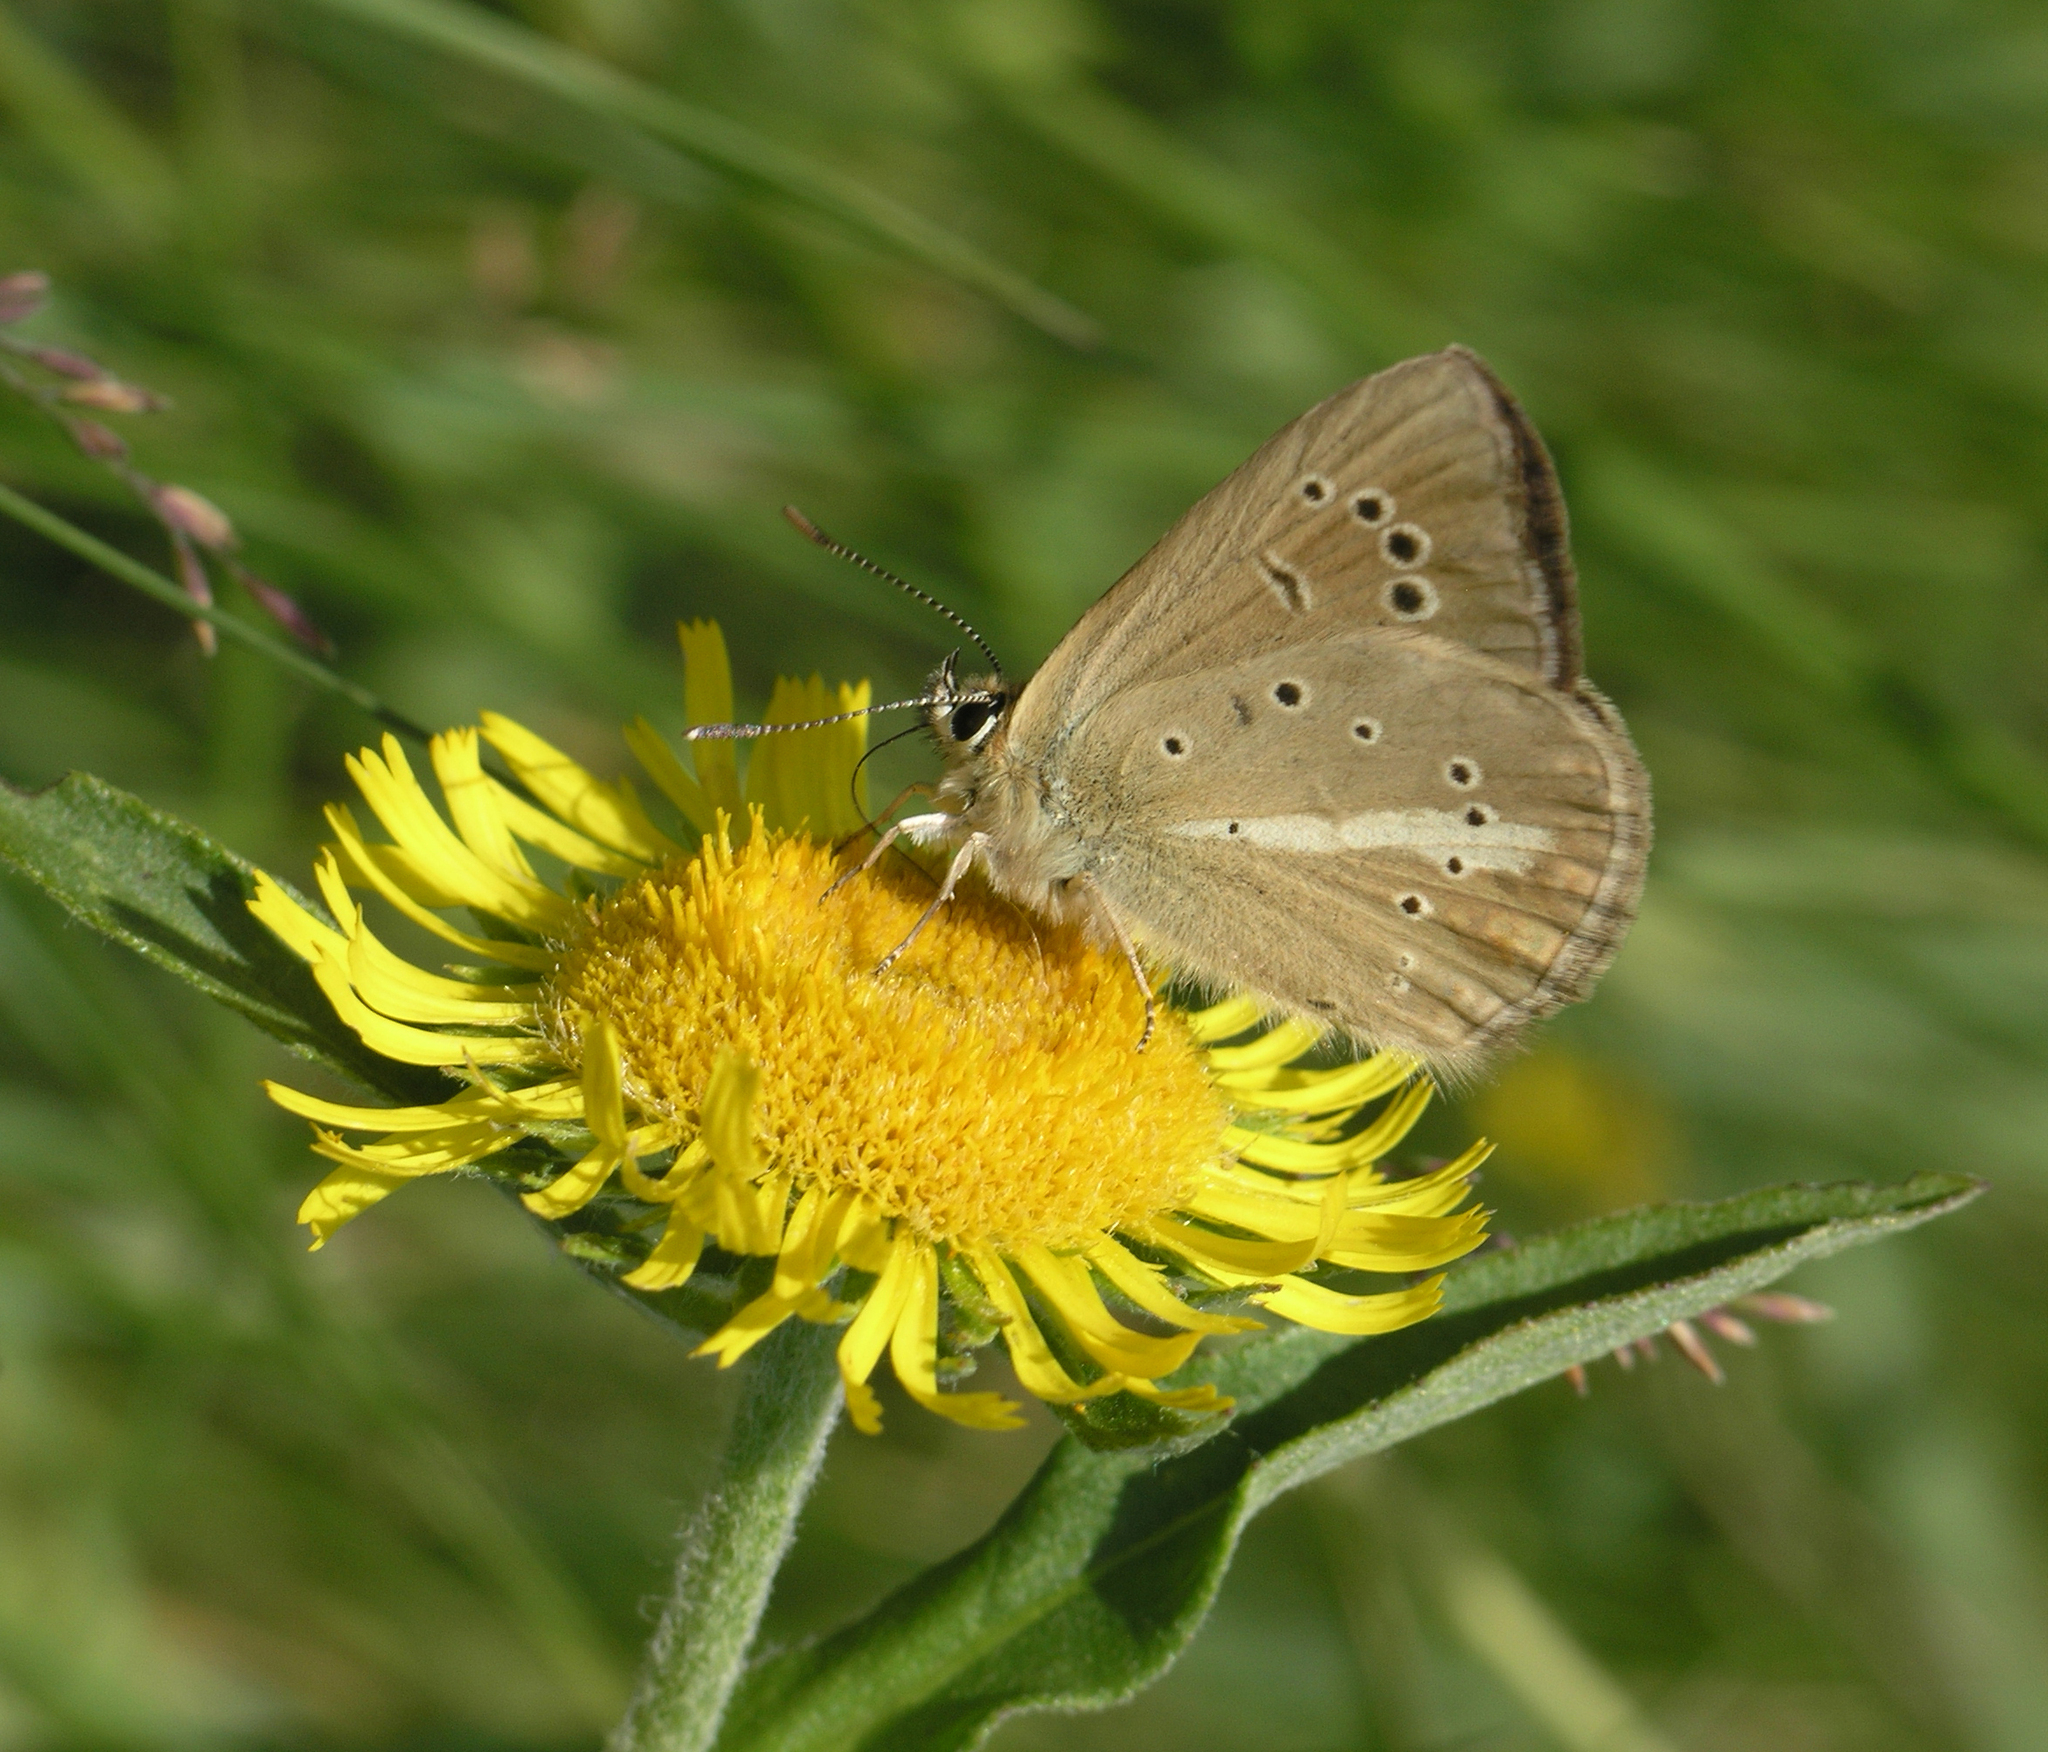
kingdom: Animalia
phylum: Arthropoda
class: Insecta
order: Lepidoptera
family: Lycaenidae
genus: Agrodiaetus
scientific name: Agrodiaetus damon
